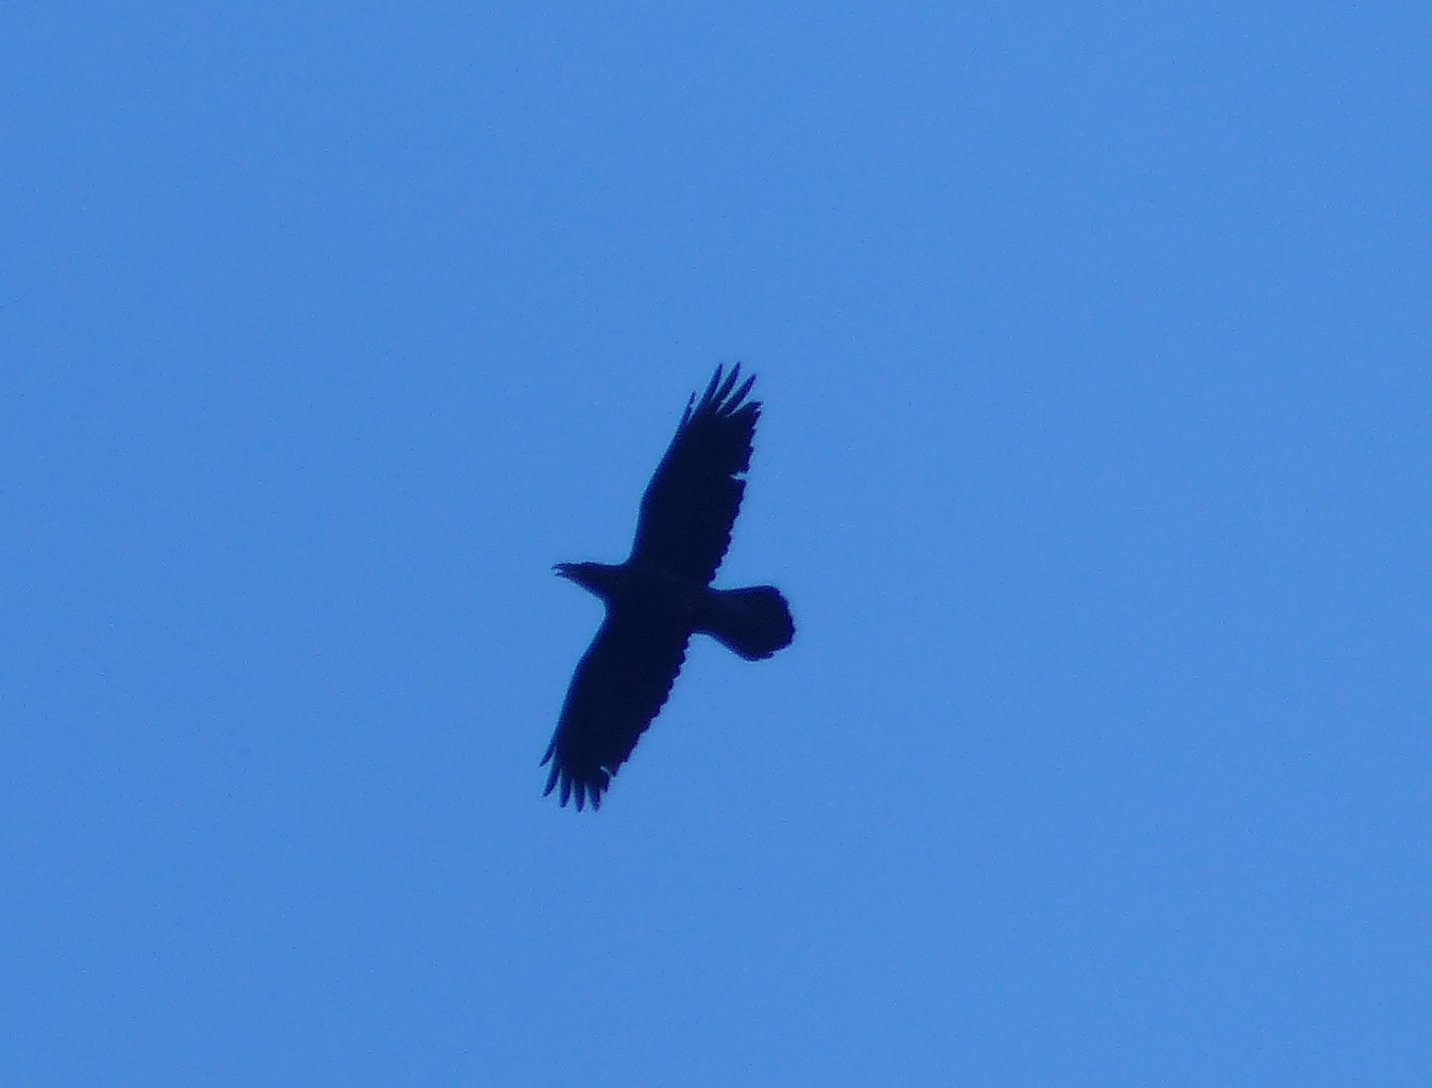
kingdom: Animalia
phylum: Chordata
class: Aves
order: Passeriformes
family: Corvidae
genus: Corvus
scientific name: Corvus corax
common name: Common raven
